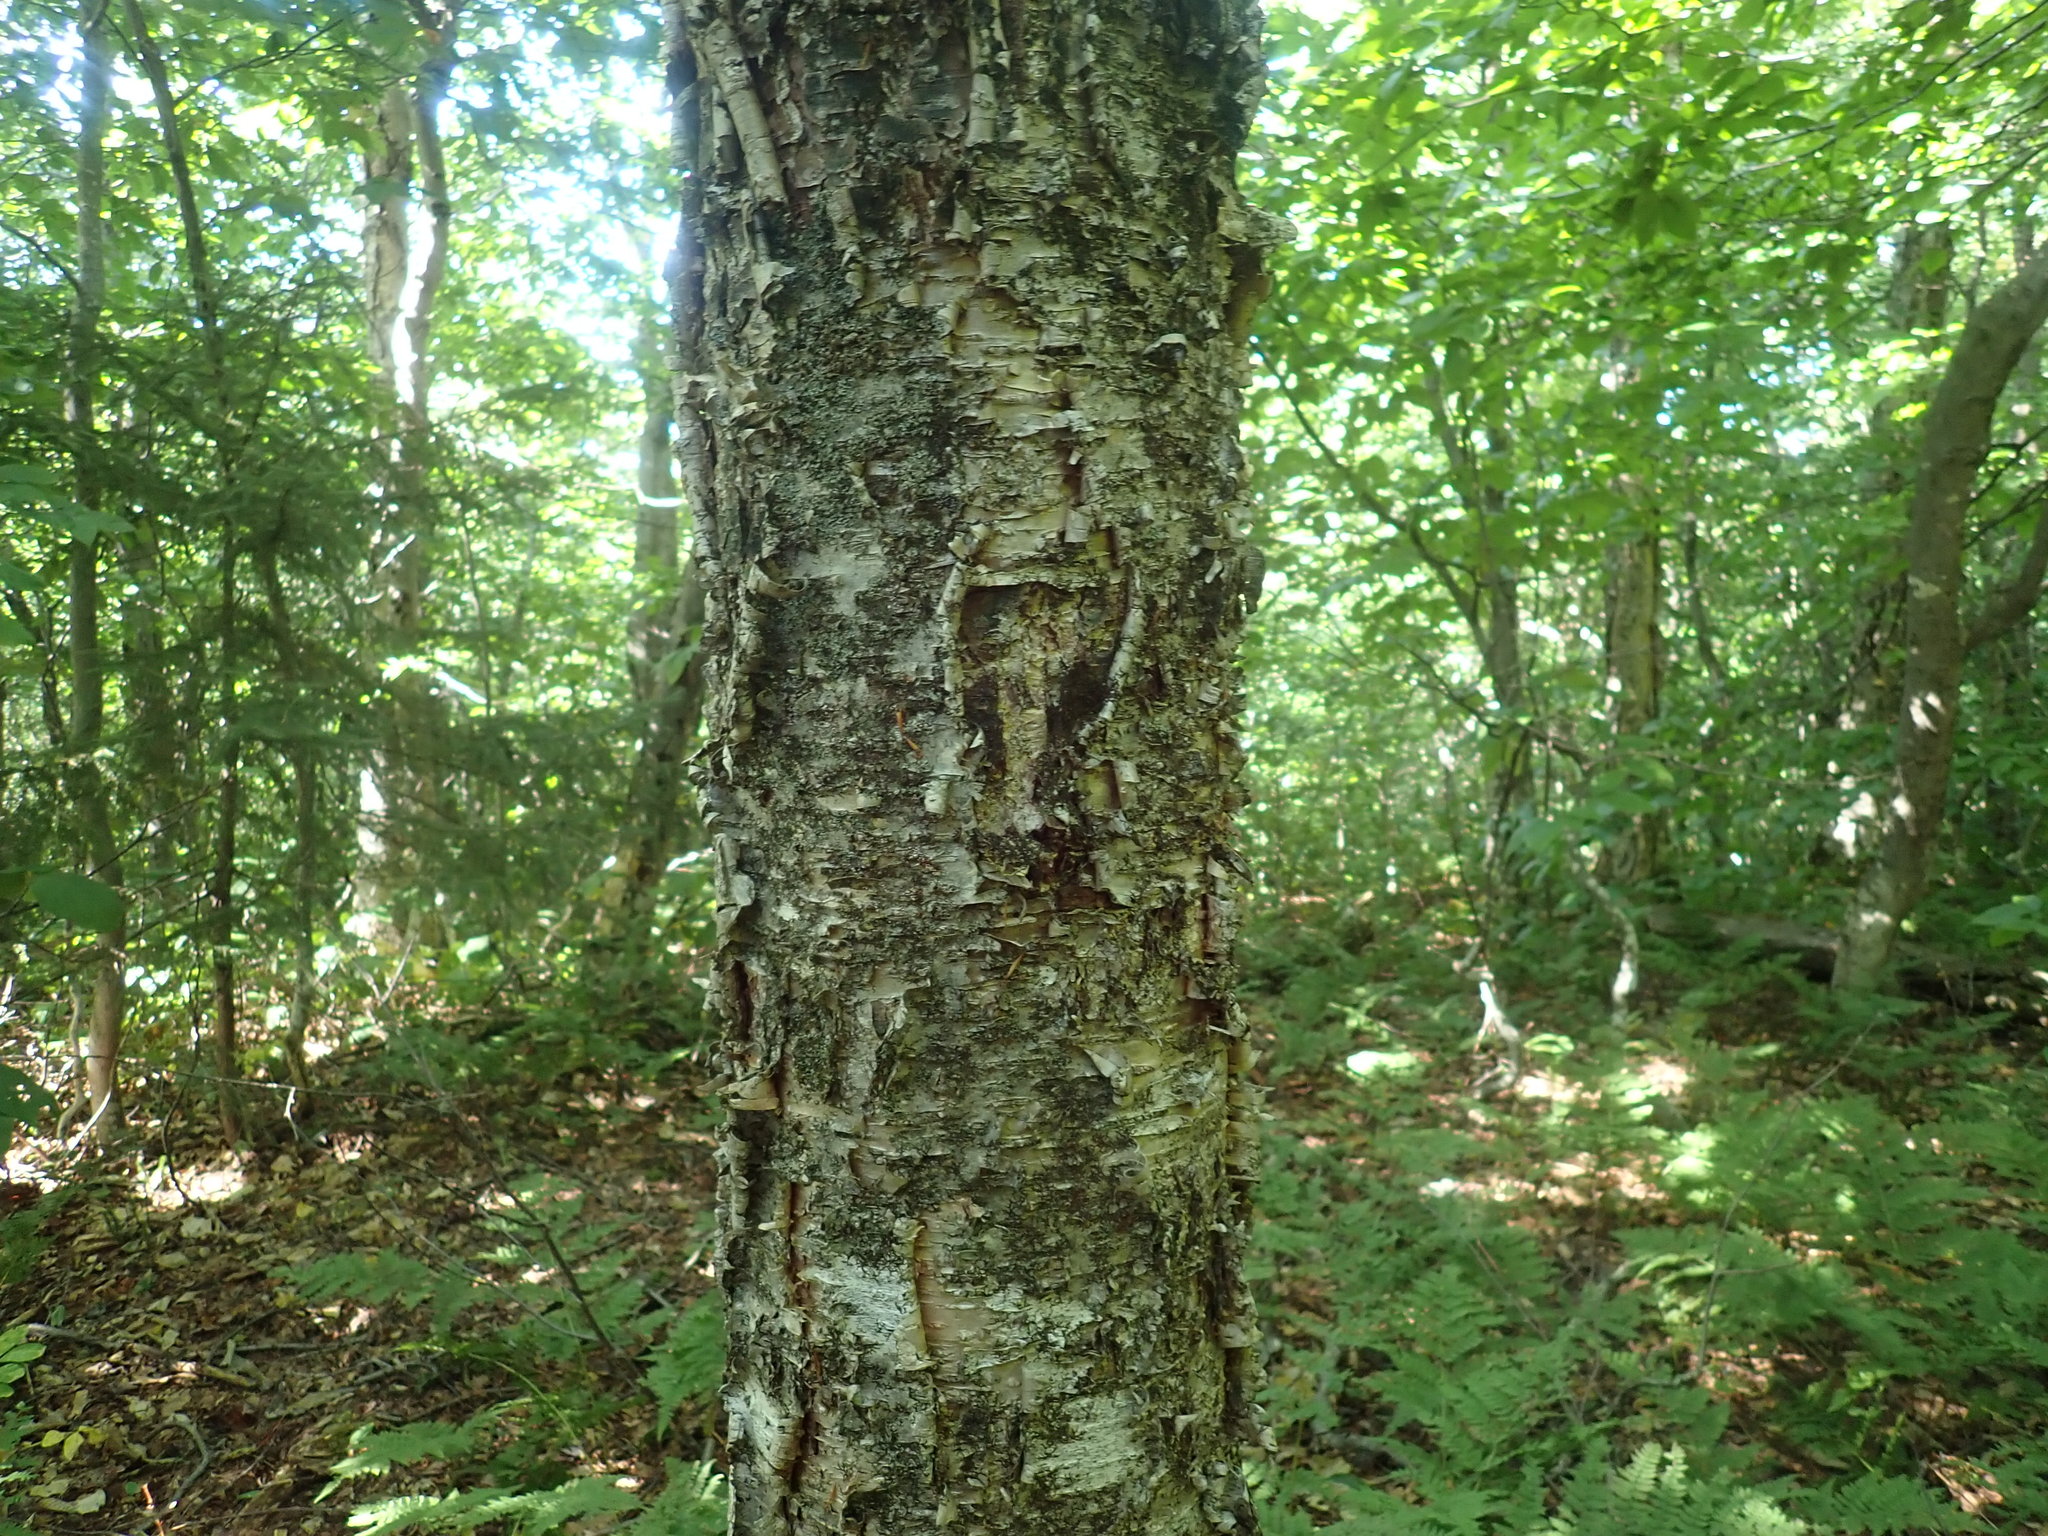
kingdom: Plantae
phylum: Tracheophyta
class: Magnoliopsida
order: Fagales
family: Betulaceae
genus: Betula
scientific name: Betula alleghaniensis
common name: Yellow birch
